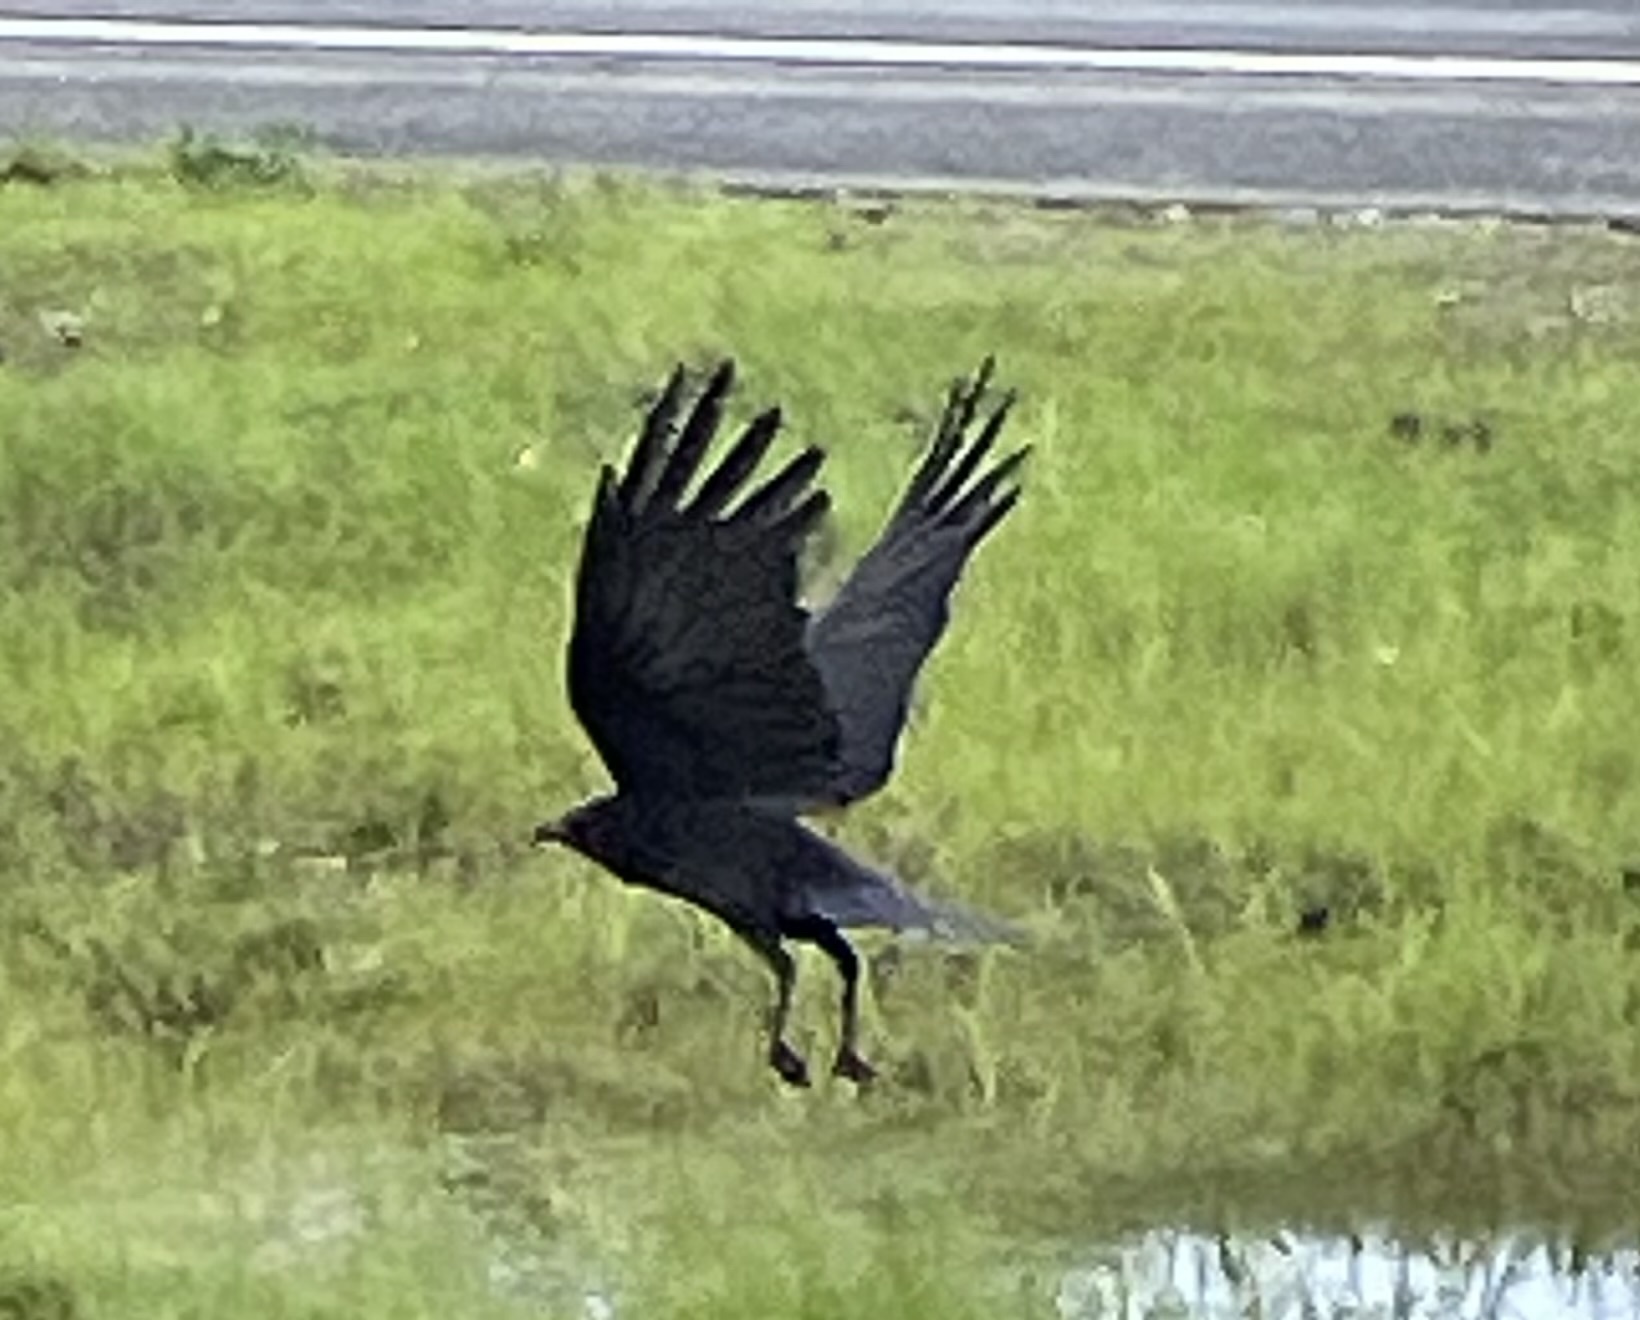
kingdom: Animalia
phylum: Chordata
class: Aves
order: Passeriformes
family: Corvidae
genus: Corvus
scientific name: Corvus brachyrhynchos
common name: American crow
